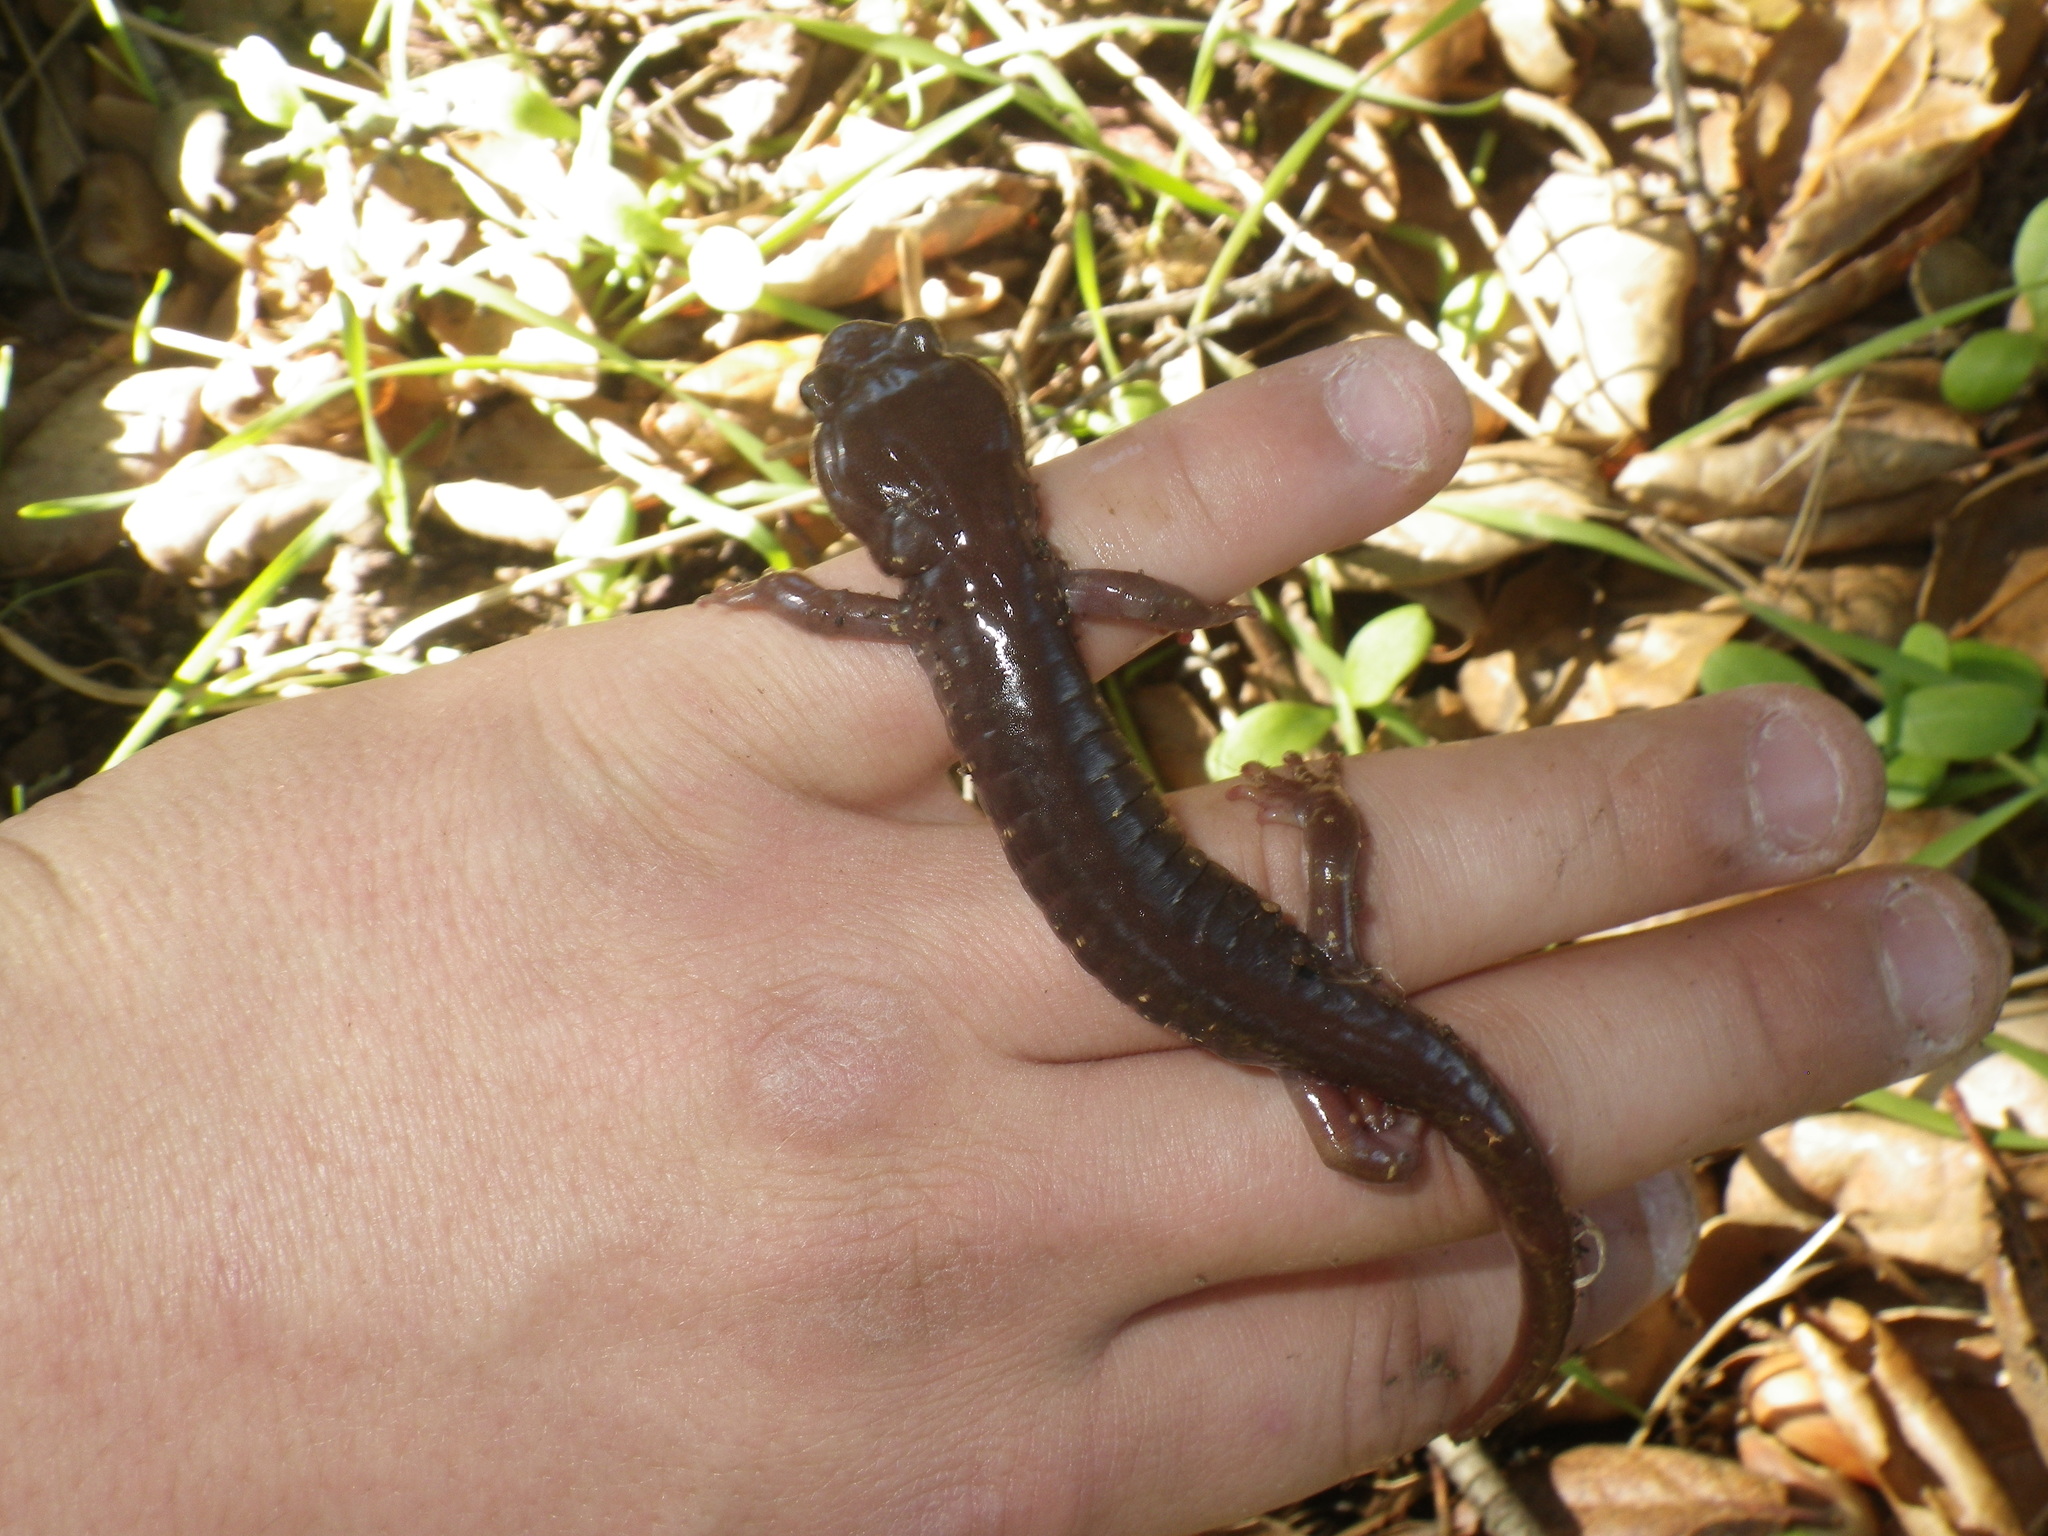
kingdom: Animalia
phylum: Chordata
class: Amphibia
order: Caudata
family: Plethodontidae
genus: Aneides
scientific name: Aneides lugubris
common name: Arboreal salamander
